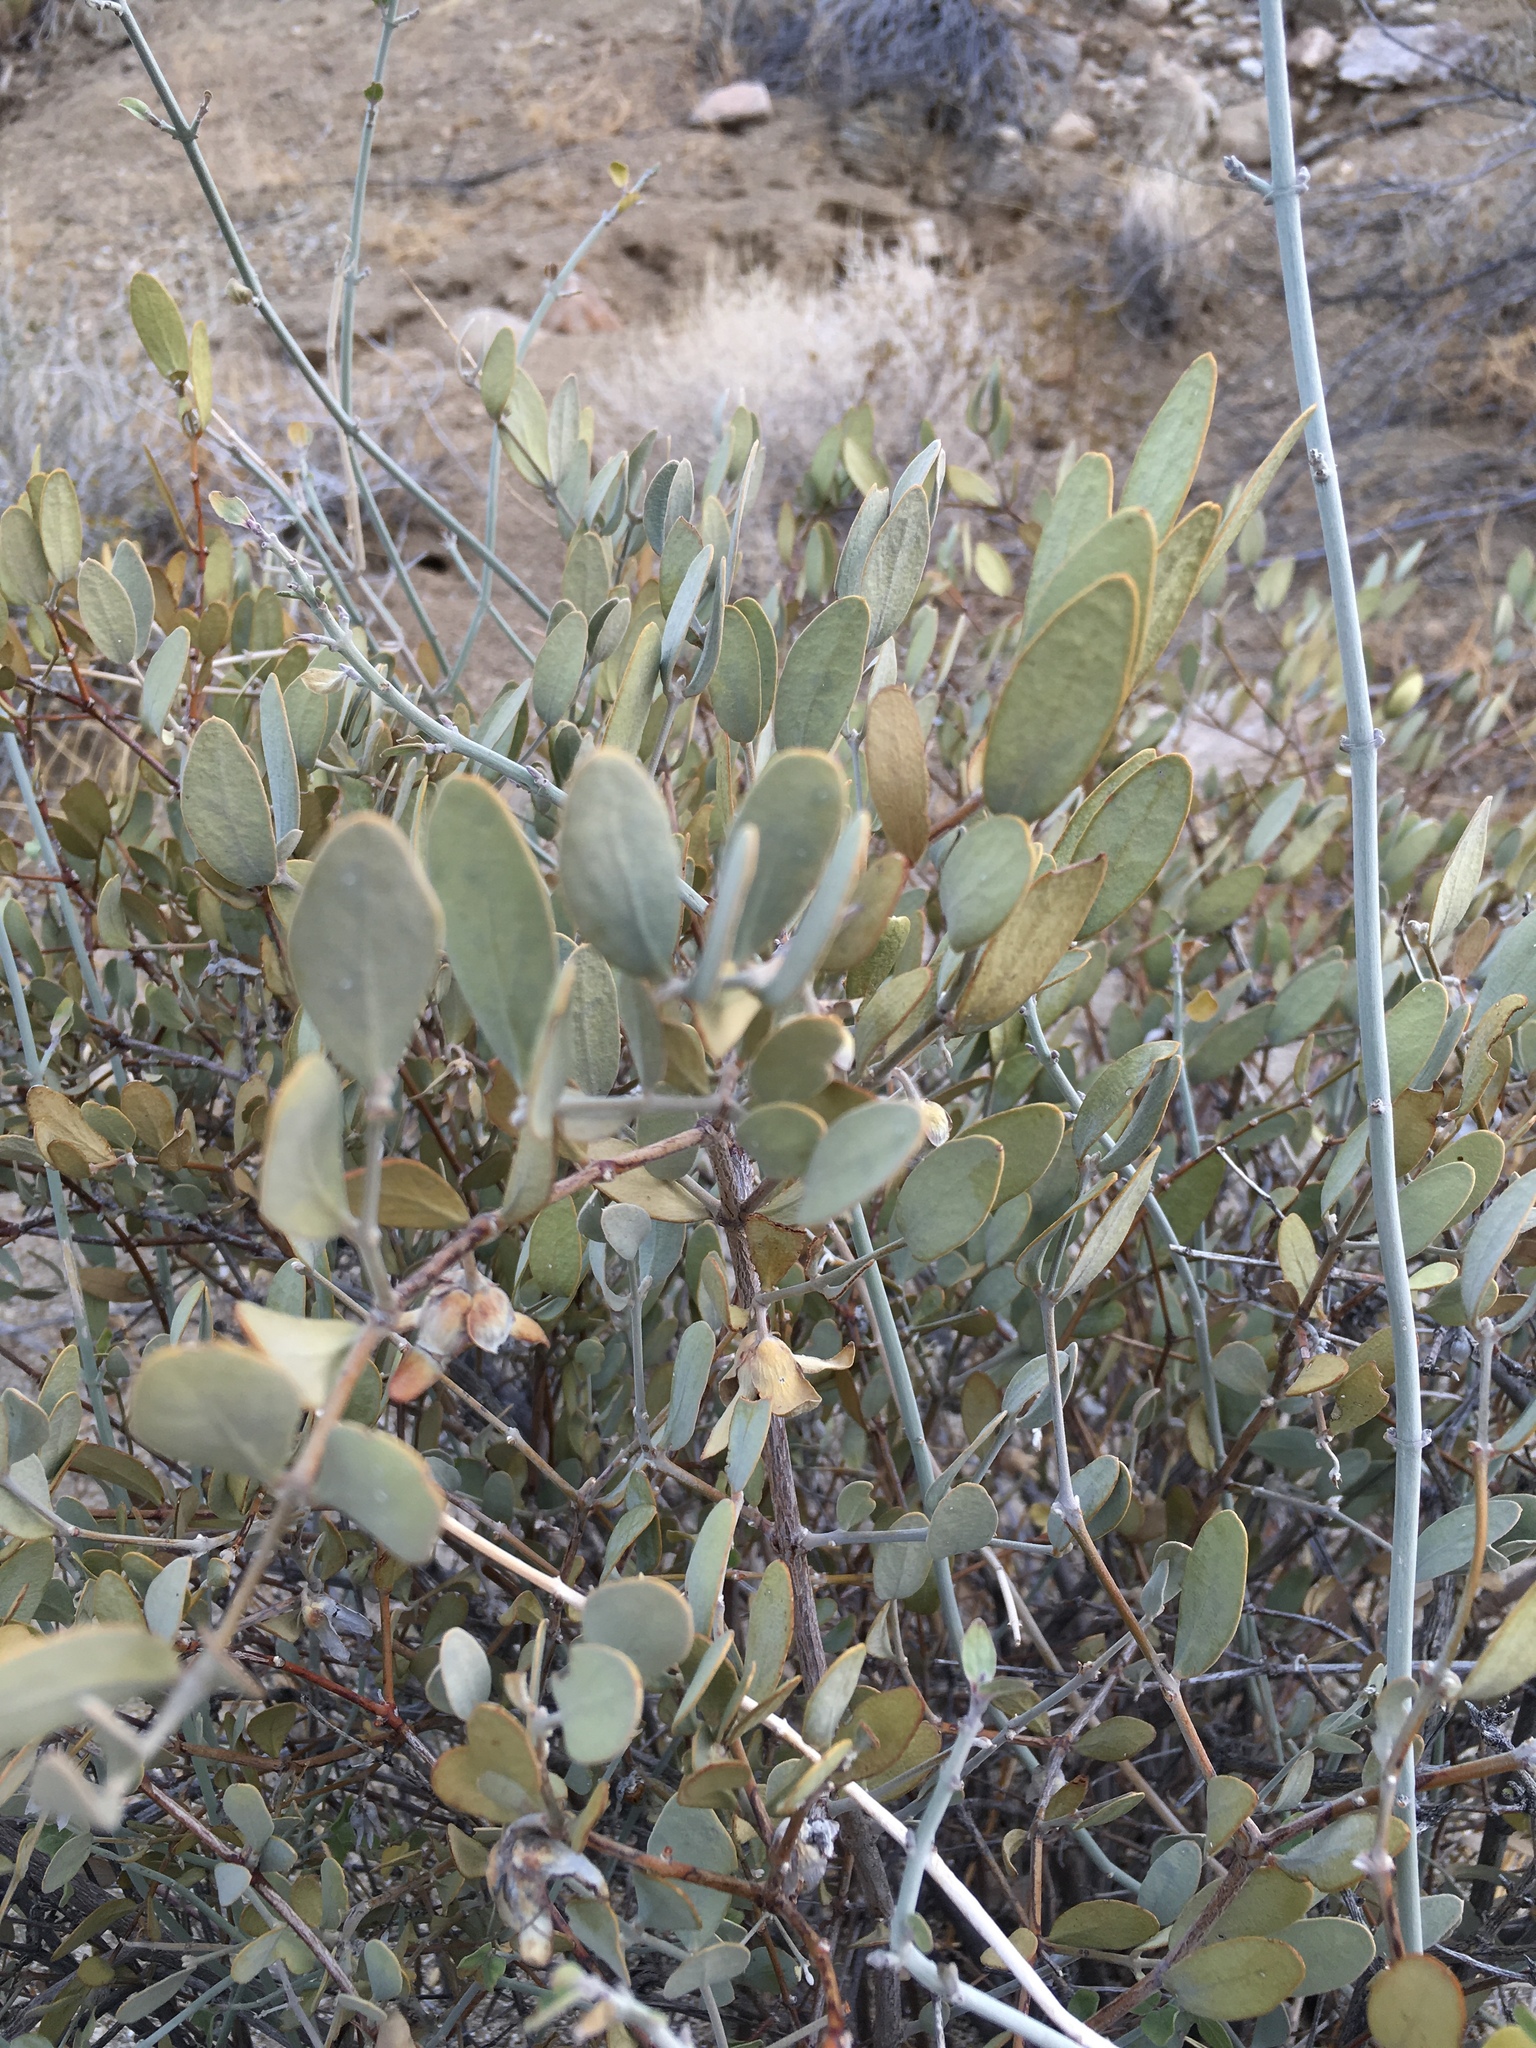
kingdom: Plantae
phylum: Tracheophyta
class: Magnoliopsida
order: Caryophyllales
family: Simmondsiaceae
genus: Simmondsia
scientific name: Simmondsia chinensis
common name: Jojoba
